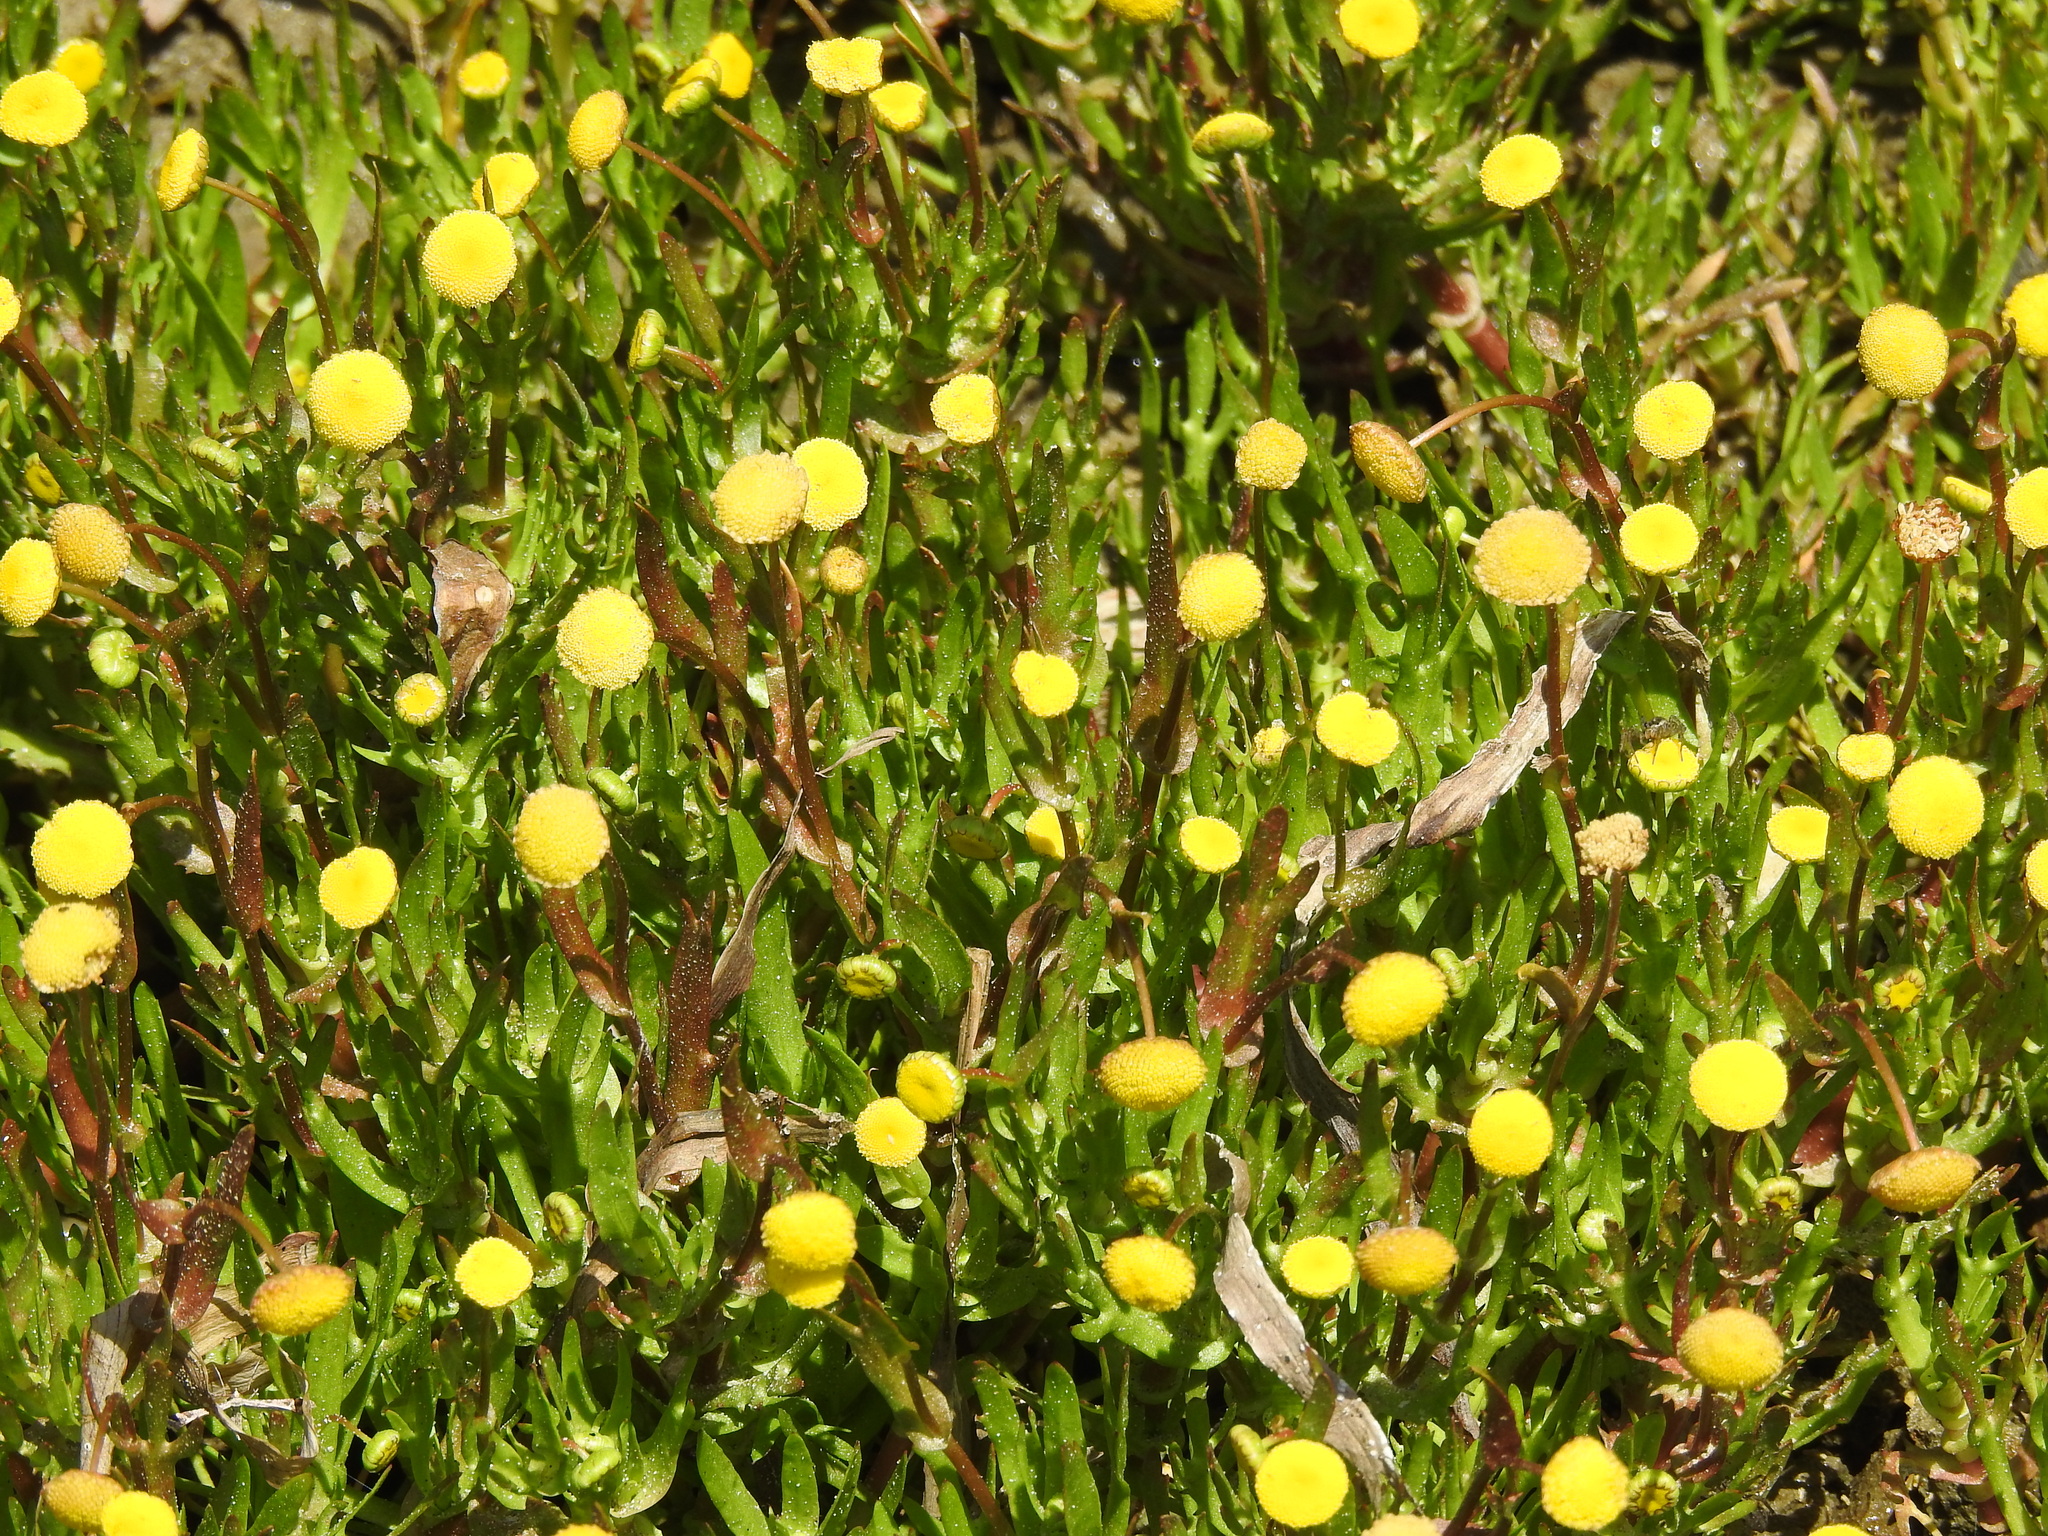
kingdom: Plantae
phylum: Tracheophyta
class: Magnoliopsida
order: Asterales
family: Asteraceae
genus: Cotula
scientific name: Cotula coronopifolia
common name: Buttonweed
